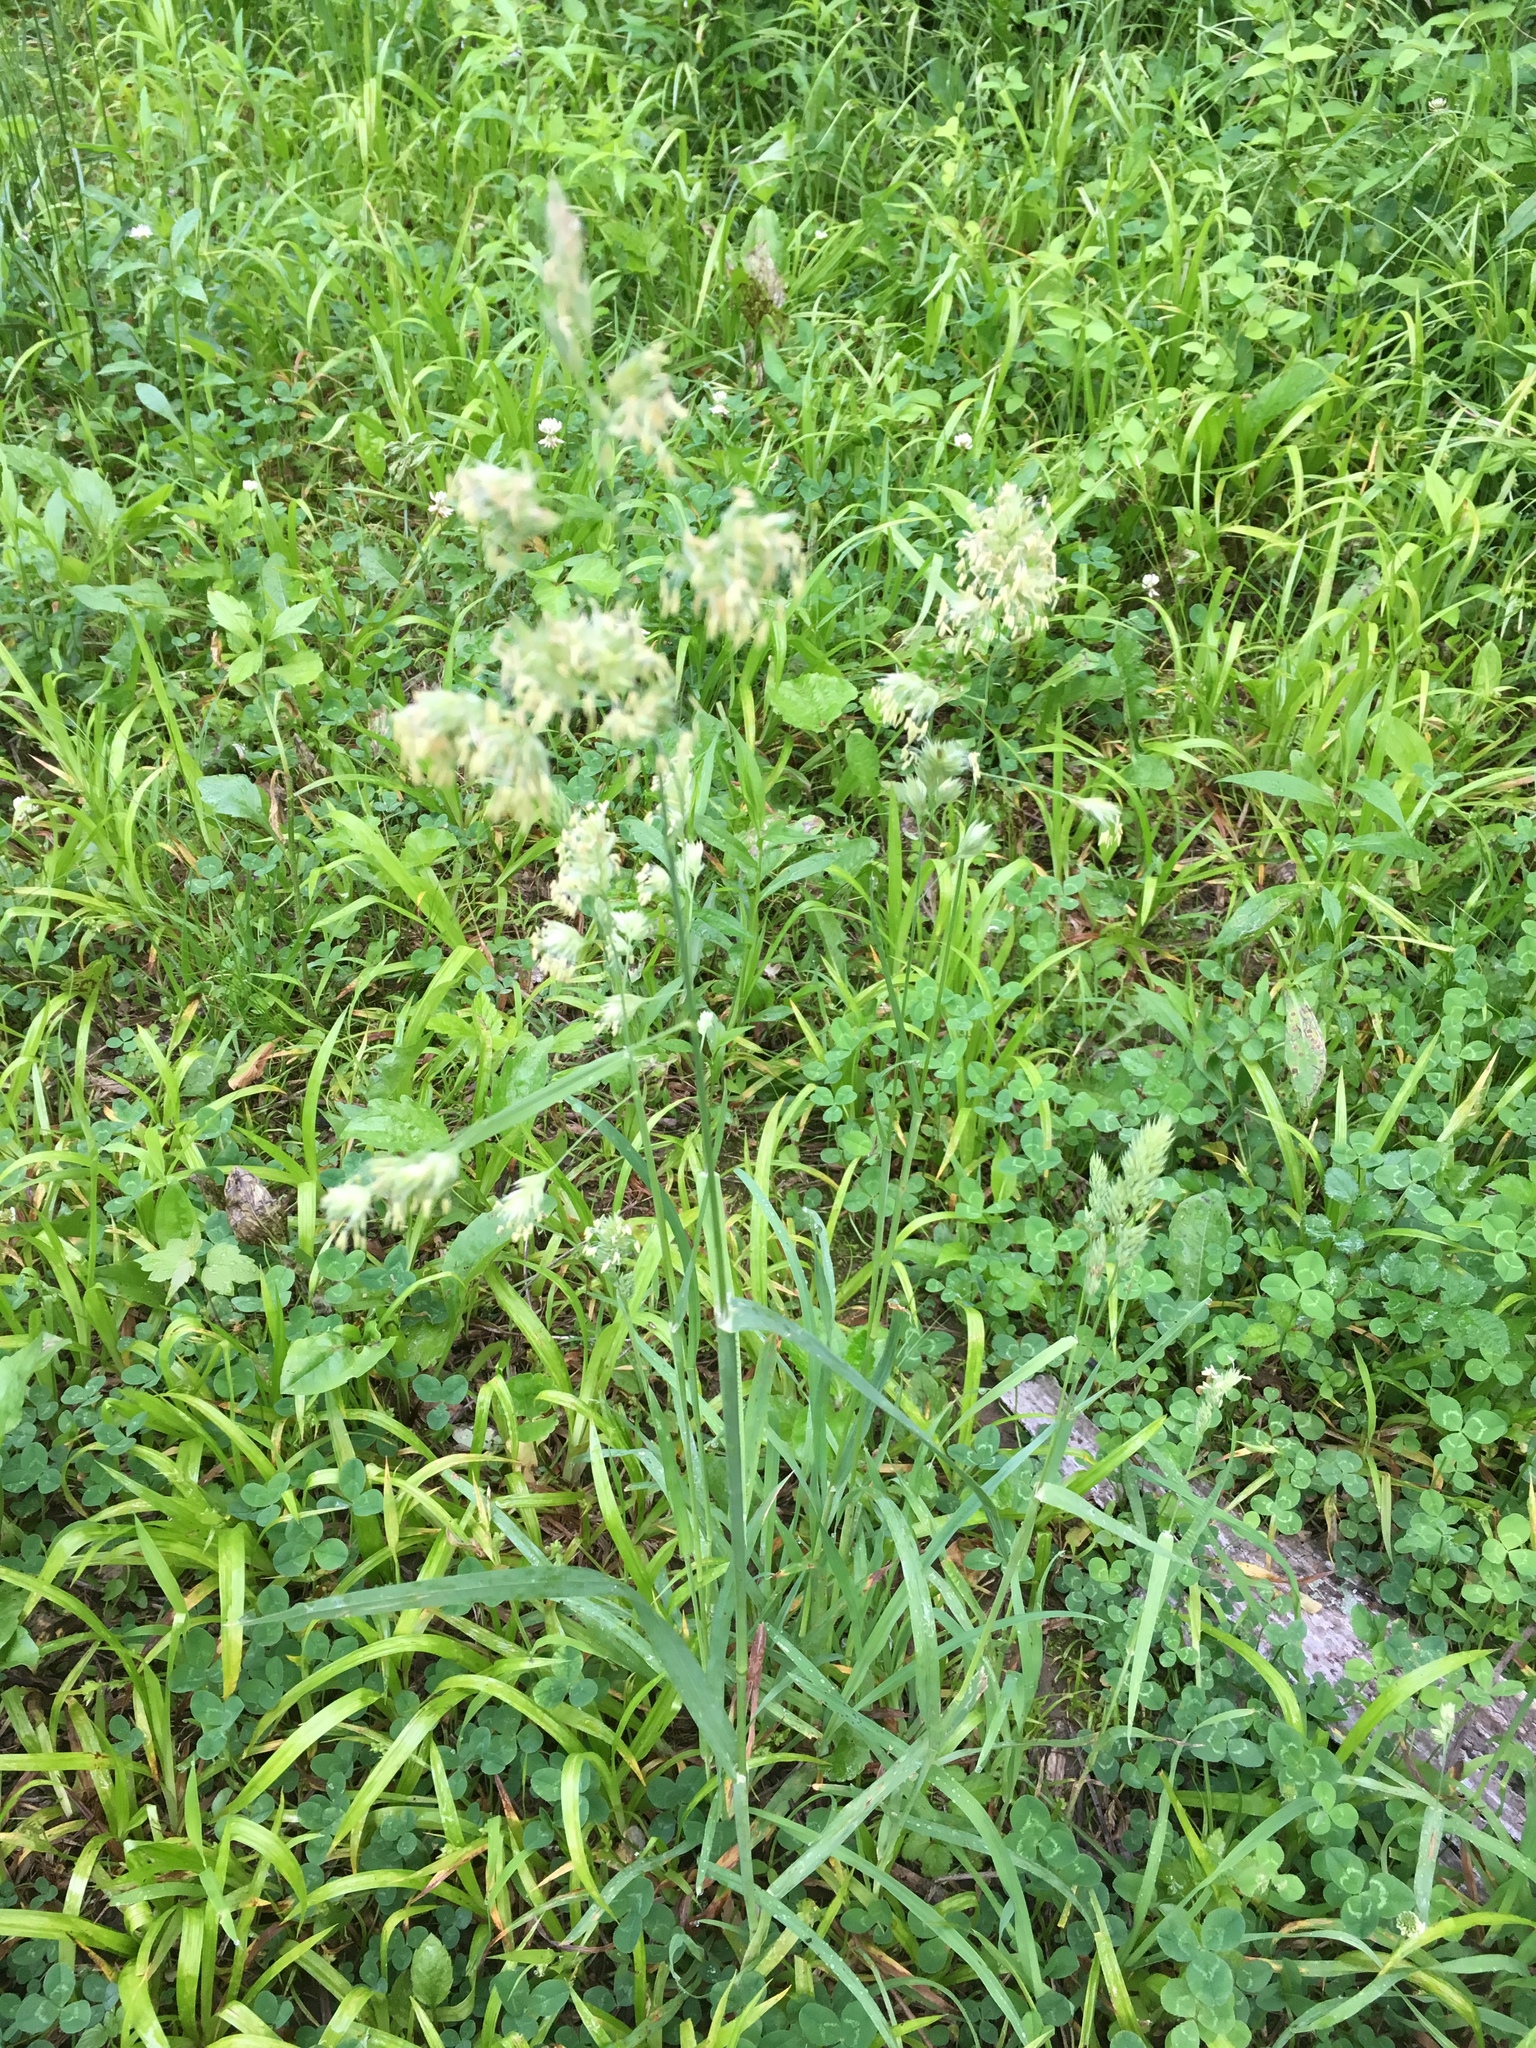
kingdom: Plantae
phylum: Tracheophyta
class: Liliopsida
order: Poales
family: Poaceae
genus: Dactylis
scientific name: Dactylis glomerata
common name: Orchardgrass
